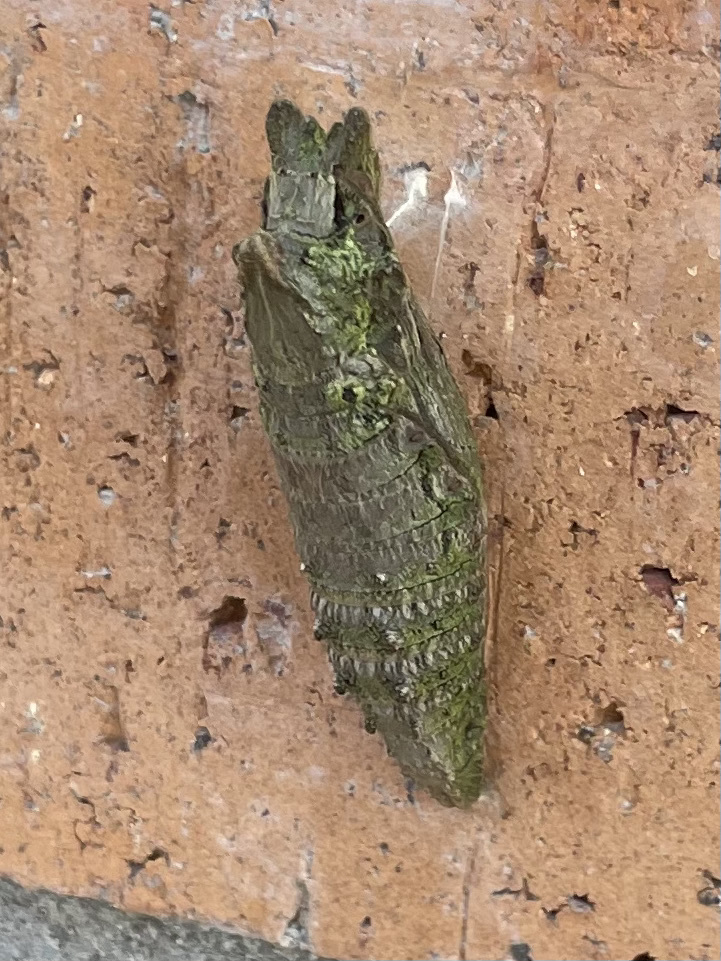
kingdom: Animalia
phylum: Arthropoda
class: Insecta
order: Lepidoptera
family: Papilionidae
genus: Papilio
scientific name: Papilio rutulus
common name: Western tiger swallowtail
